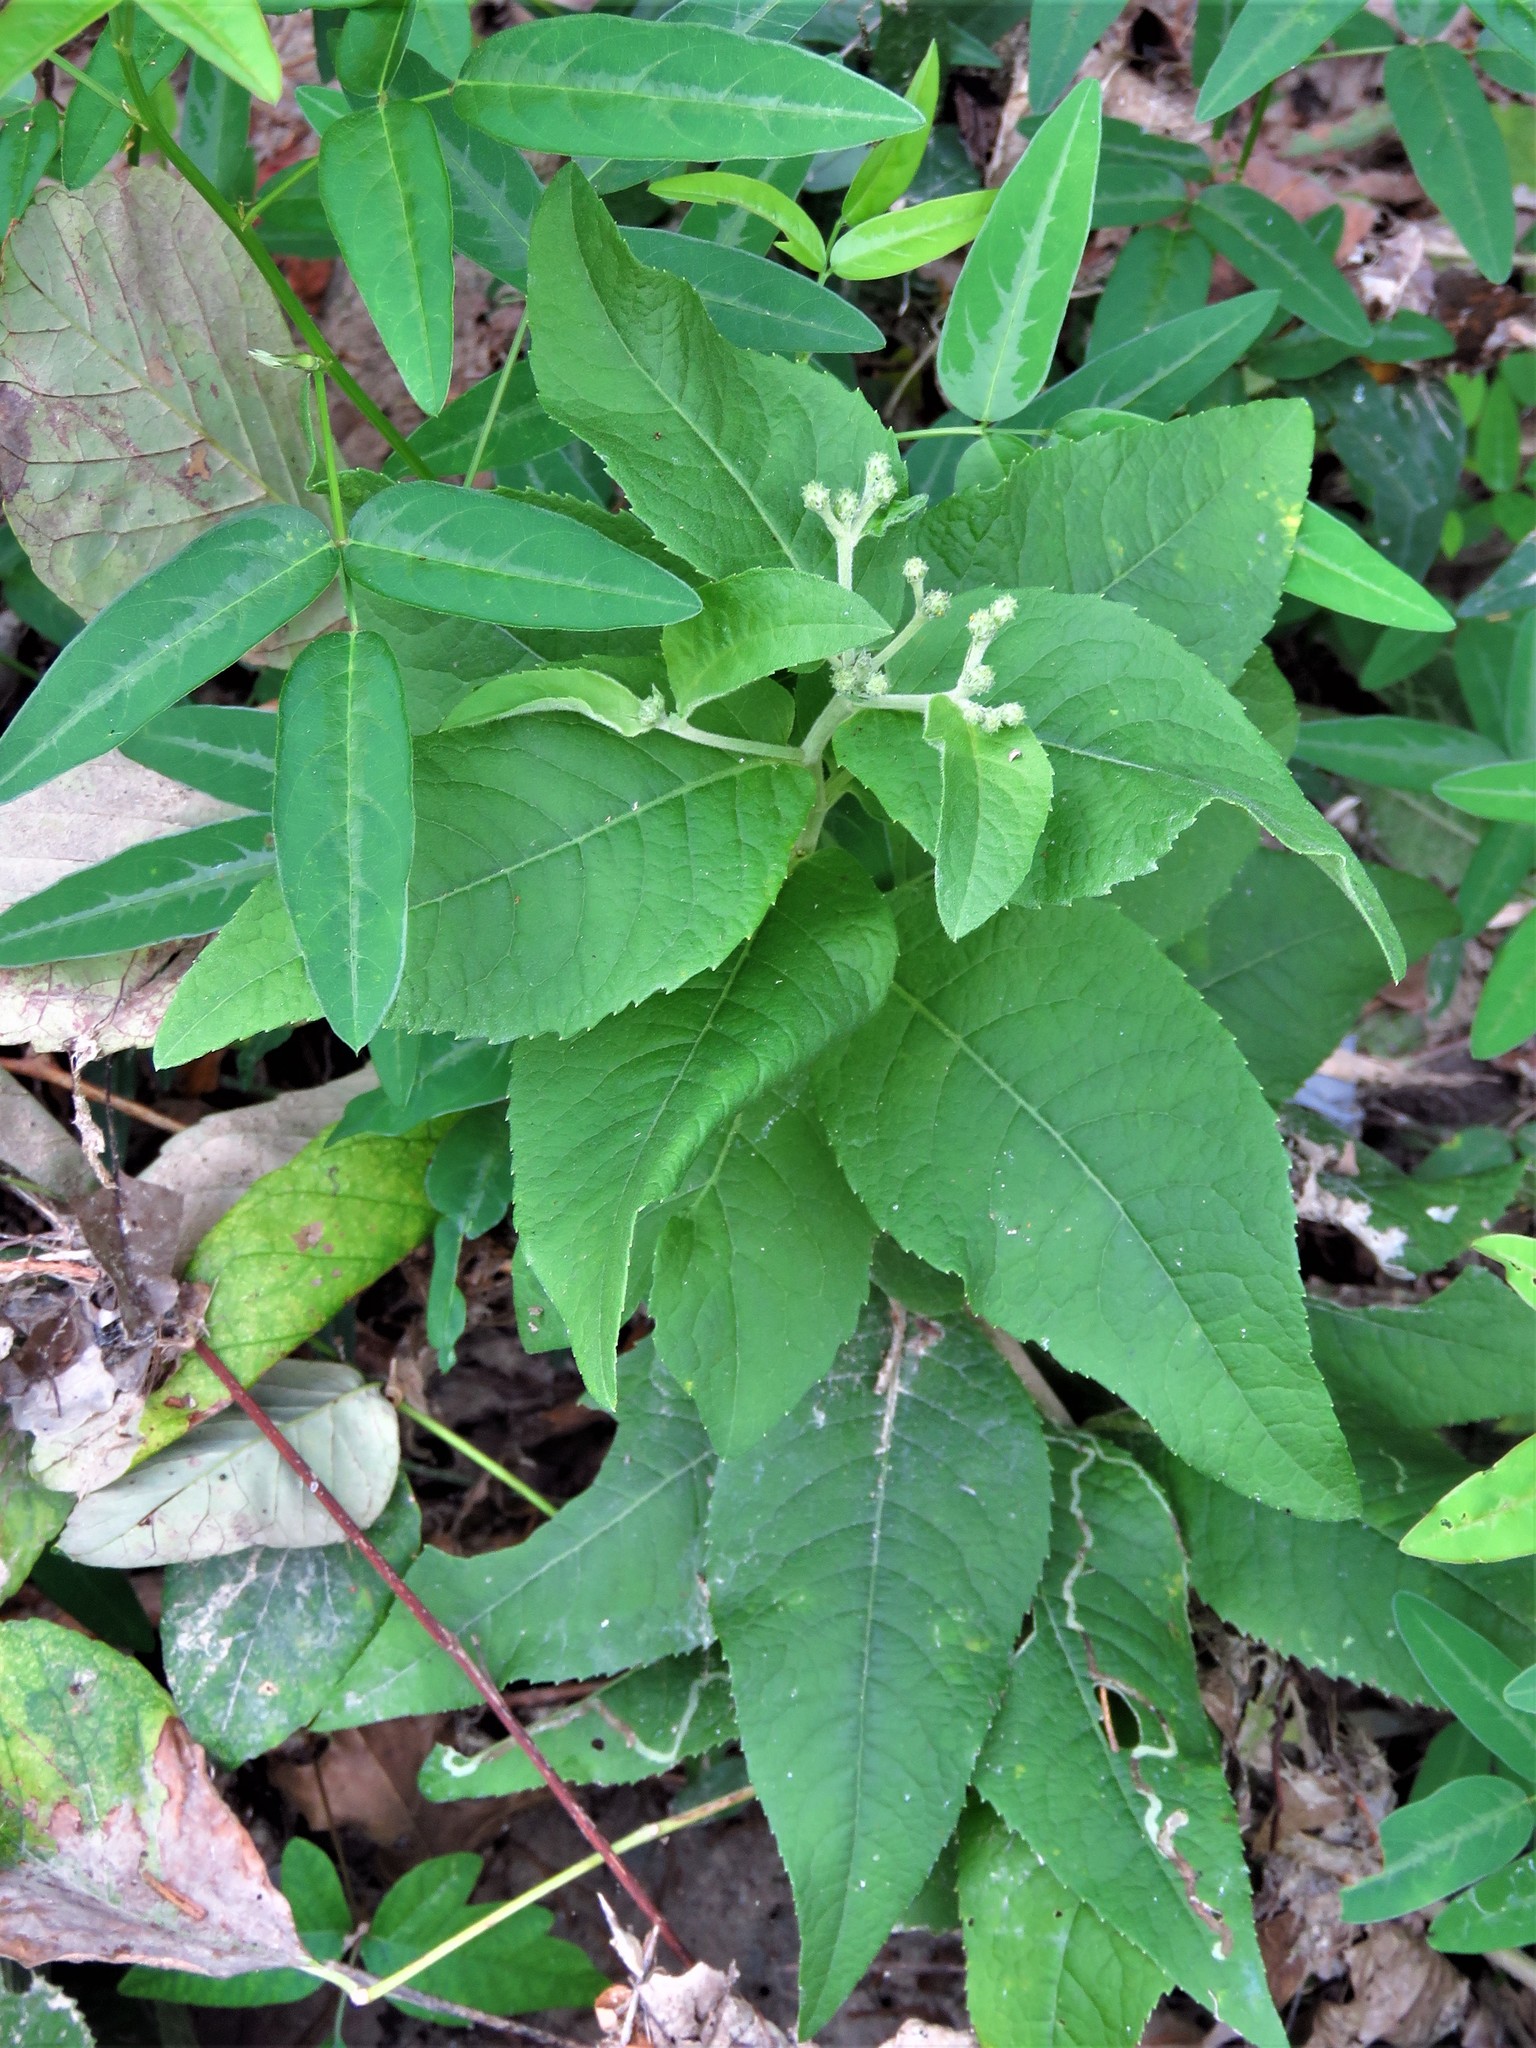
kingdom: Plantae
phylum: Tracheophyta
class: Magnoliopsida
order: Asterales
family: Asteraceae
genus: Vernonia
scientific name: Vernonia baldwinii
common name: Western ironweed
